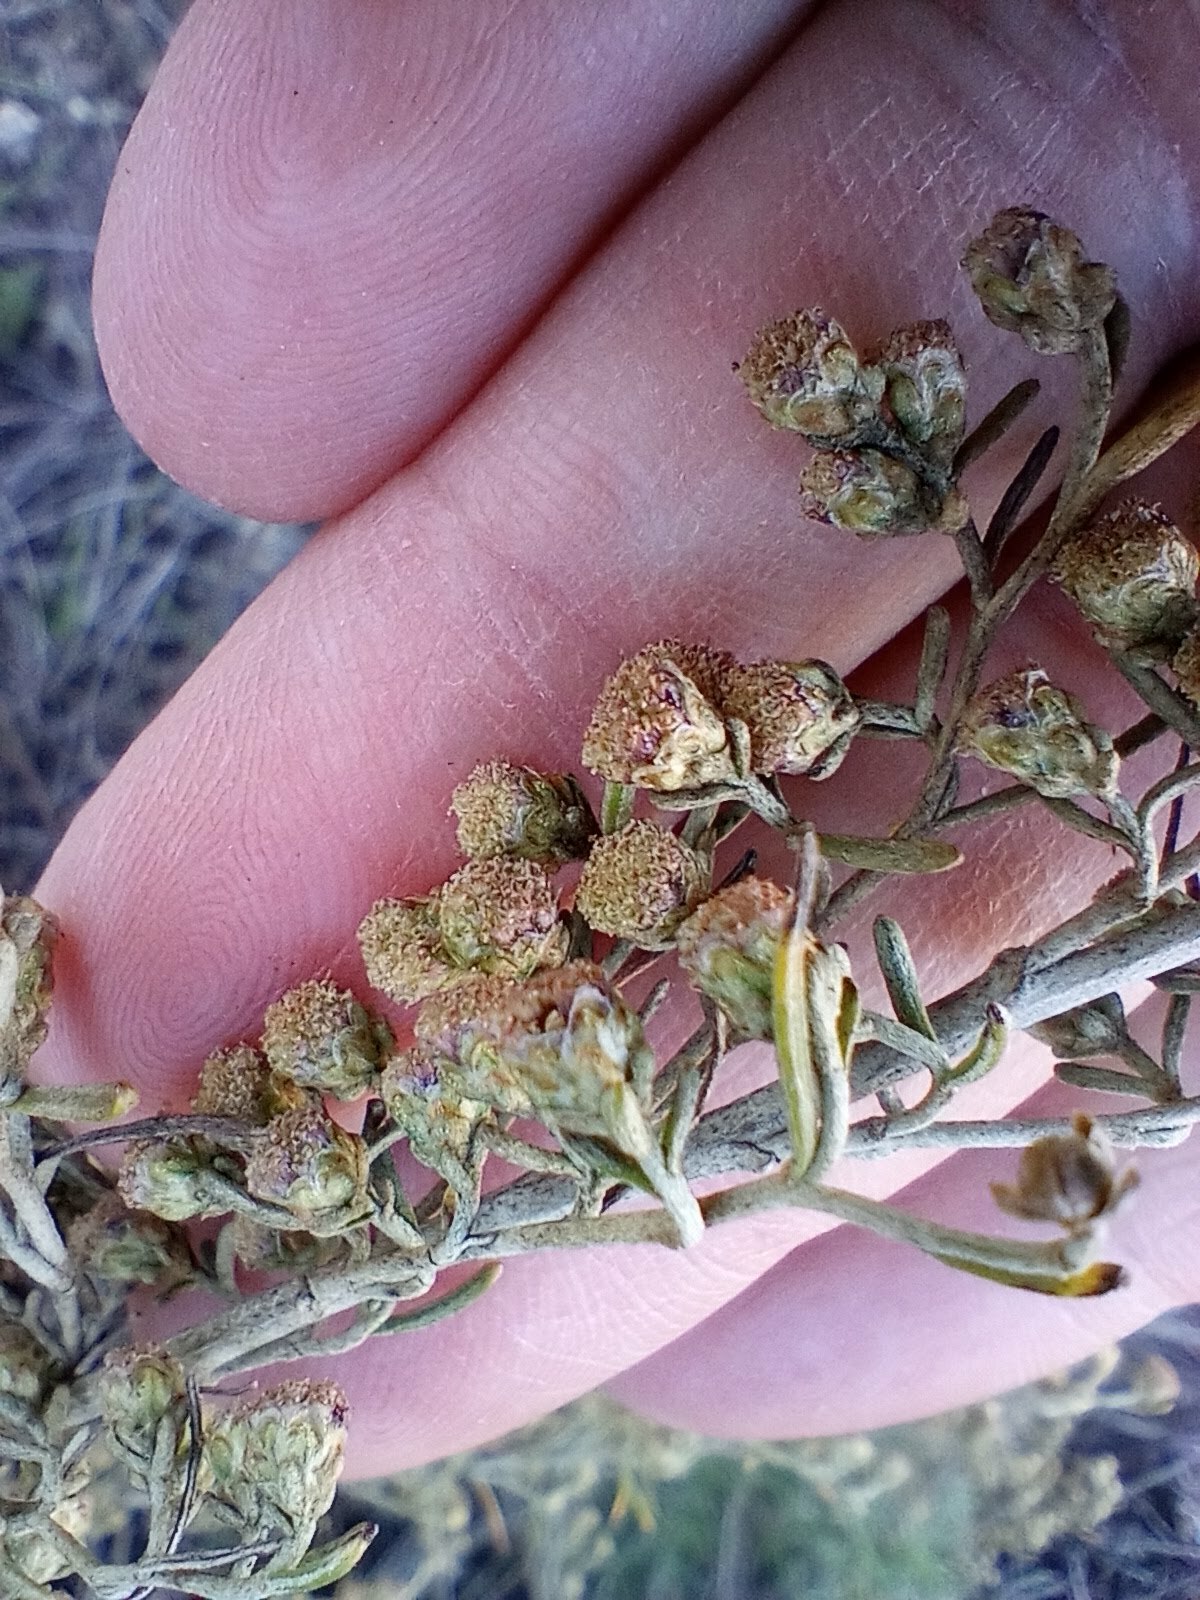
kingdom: Plantae
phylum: Tracheophyta
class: Magnoliopsida
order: Asterales
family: Asteraceae
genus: Artemisia
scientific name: Artemisia californica
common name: California sagebrush
